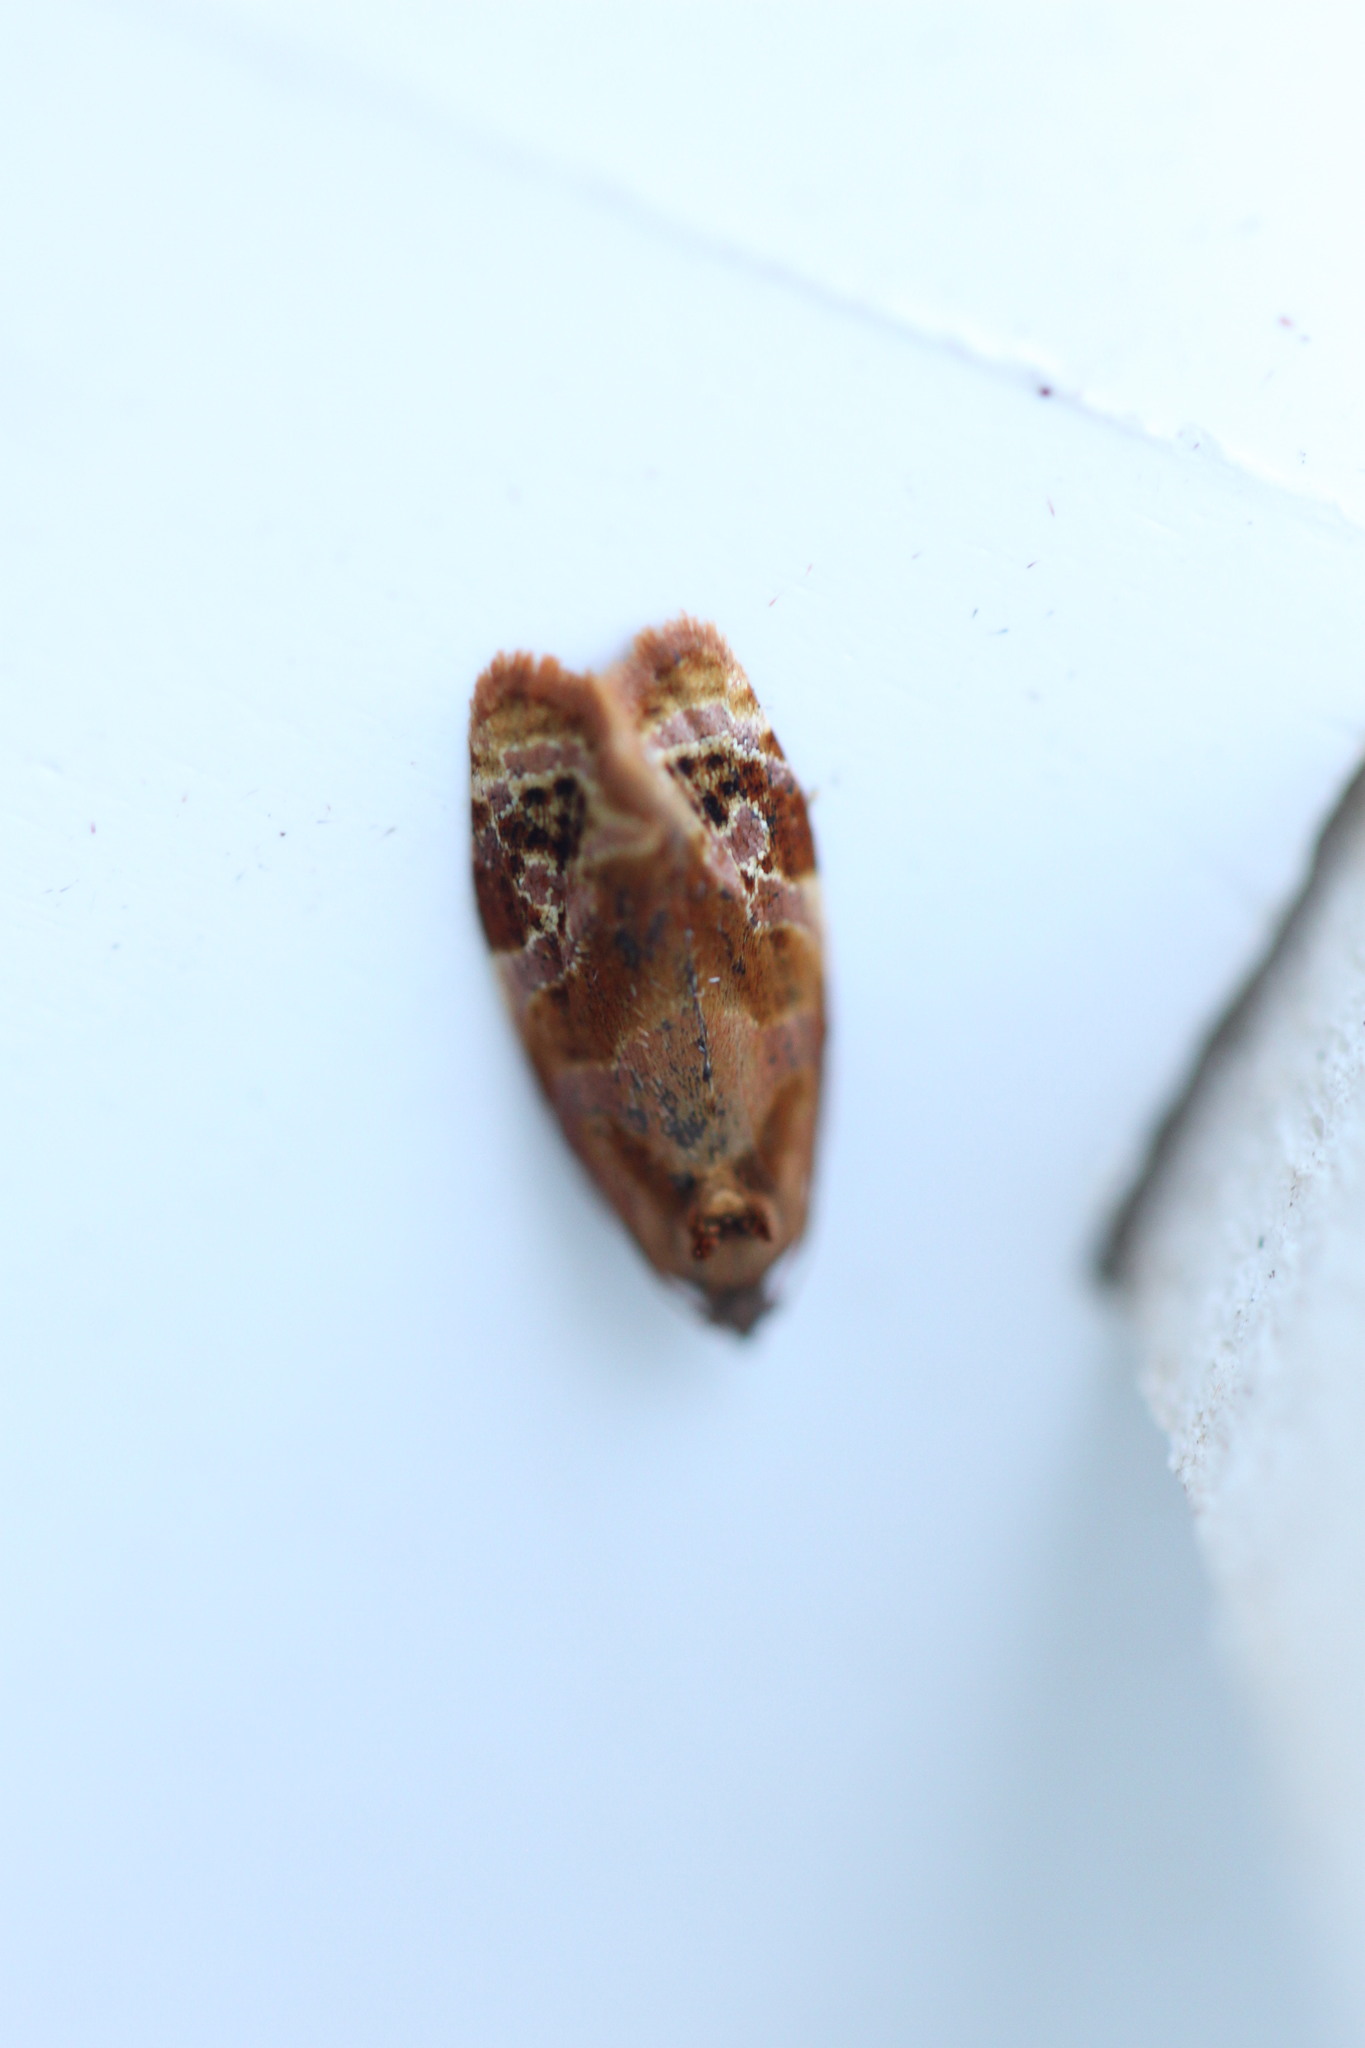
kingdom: Animalia
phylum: Arthropoda
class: Insecta
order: Lepidoptera
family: Tortricidae
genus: Ditula
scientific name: Ditula angustiorana
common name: Red-barred tortrix
